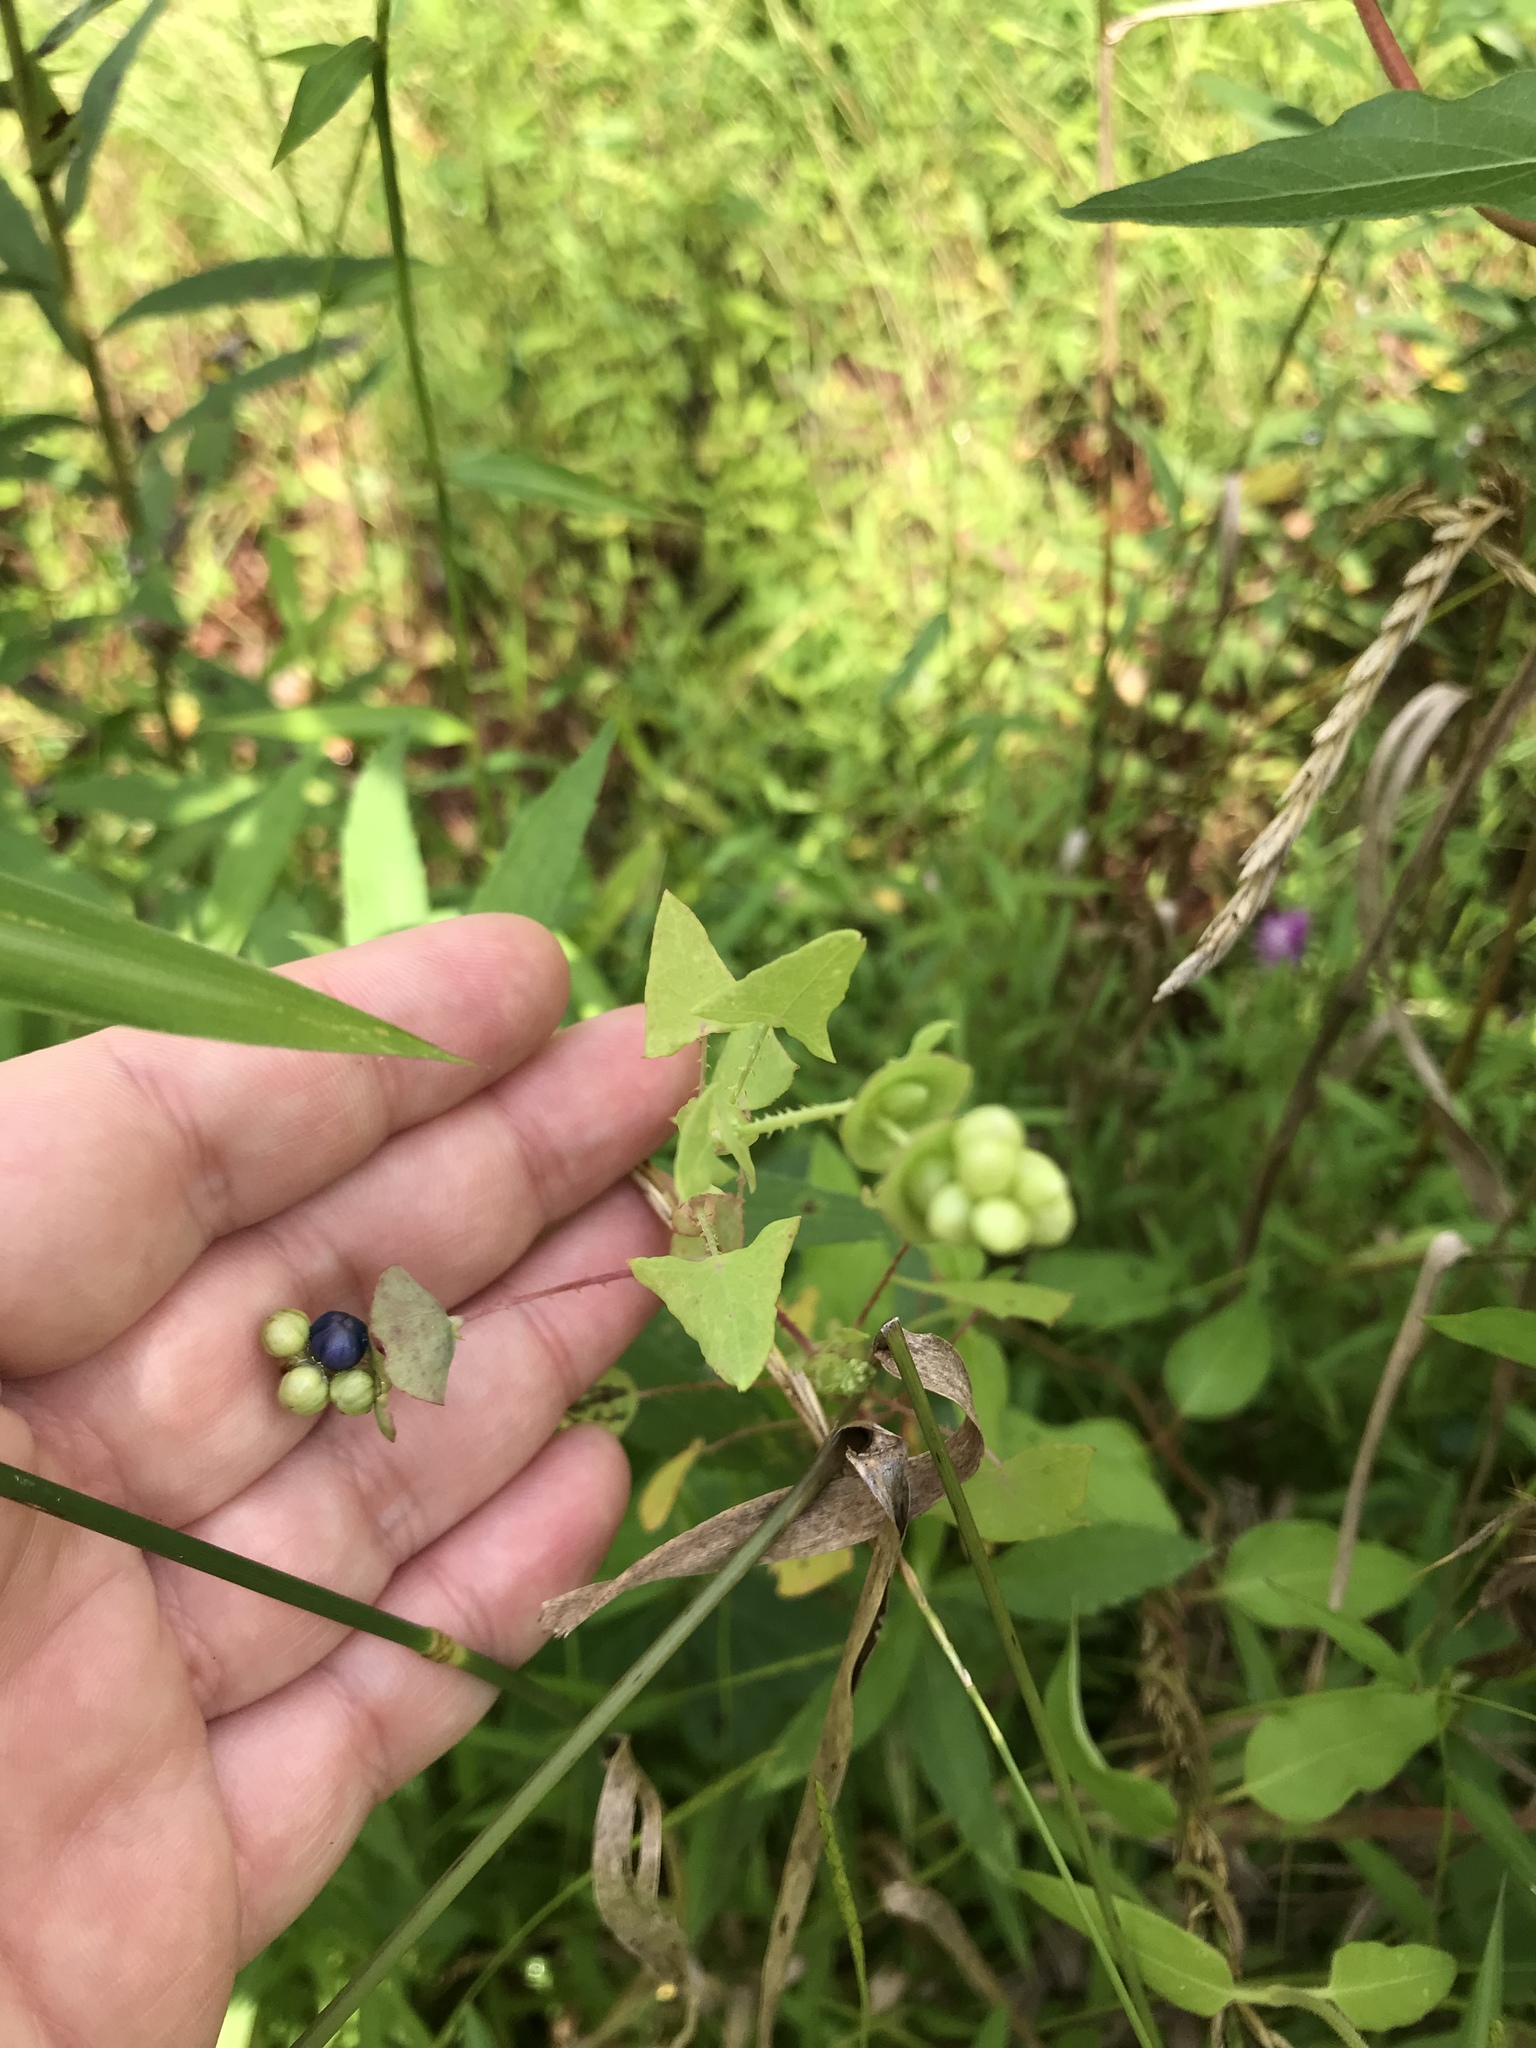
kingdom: Plantae
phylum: Tracheophyta
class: Magnoliopsida
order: Caryophyllales
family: Polygonaceae
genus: Persicaria
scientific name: Persicaria perfoliata
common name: Asiatic tearthumb
